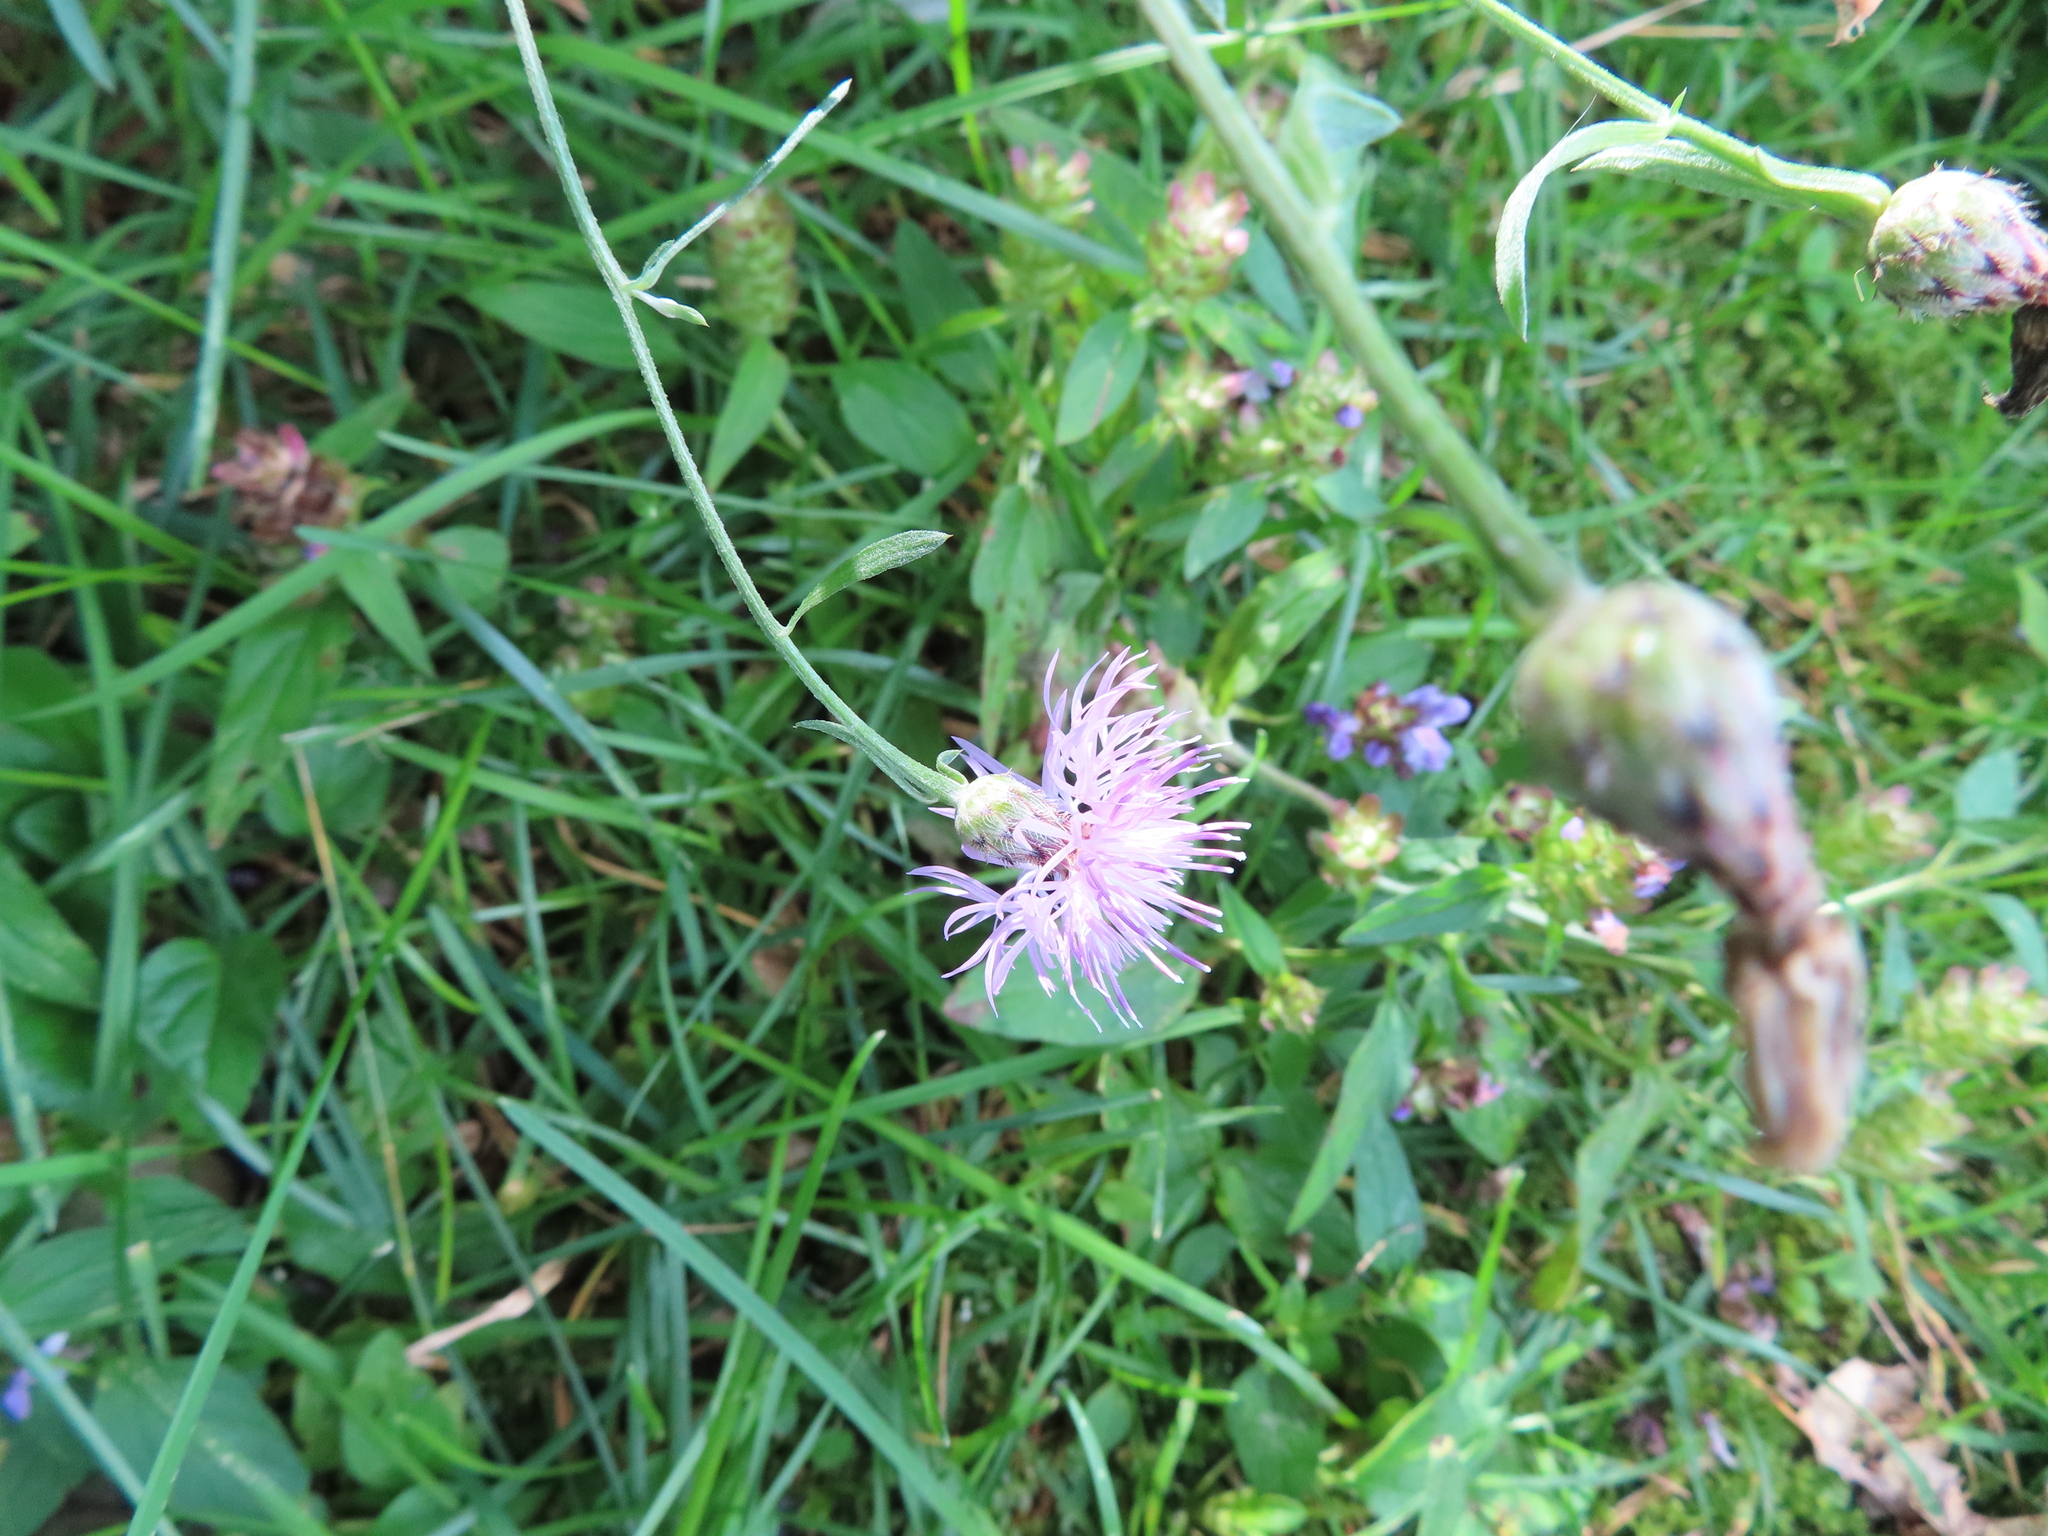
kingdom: Plantae
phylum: Tracheophyta
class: Magnoliopsida
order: Asterales
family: Asteraceae
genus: Centaurea
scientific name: Centaurea stoebe
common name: Spotted knapweed
